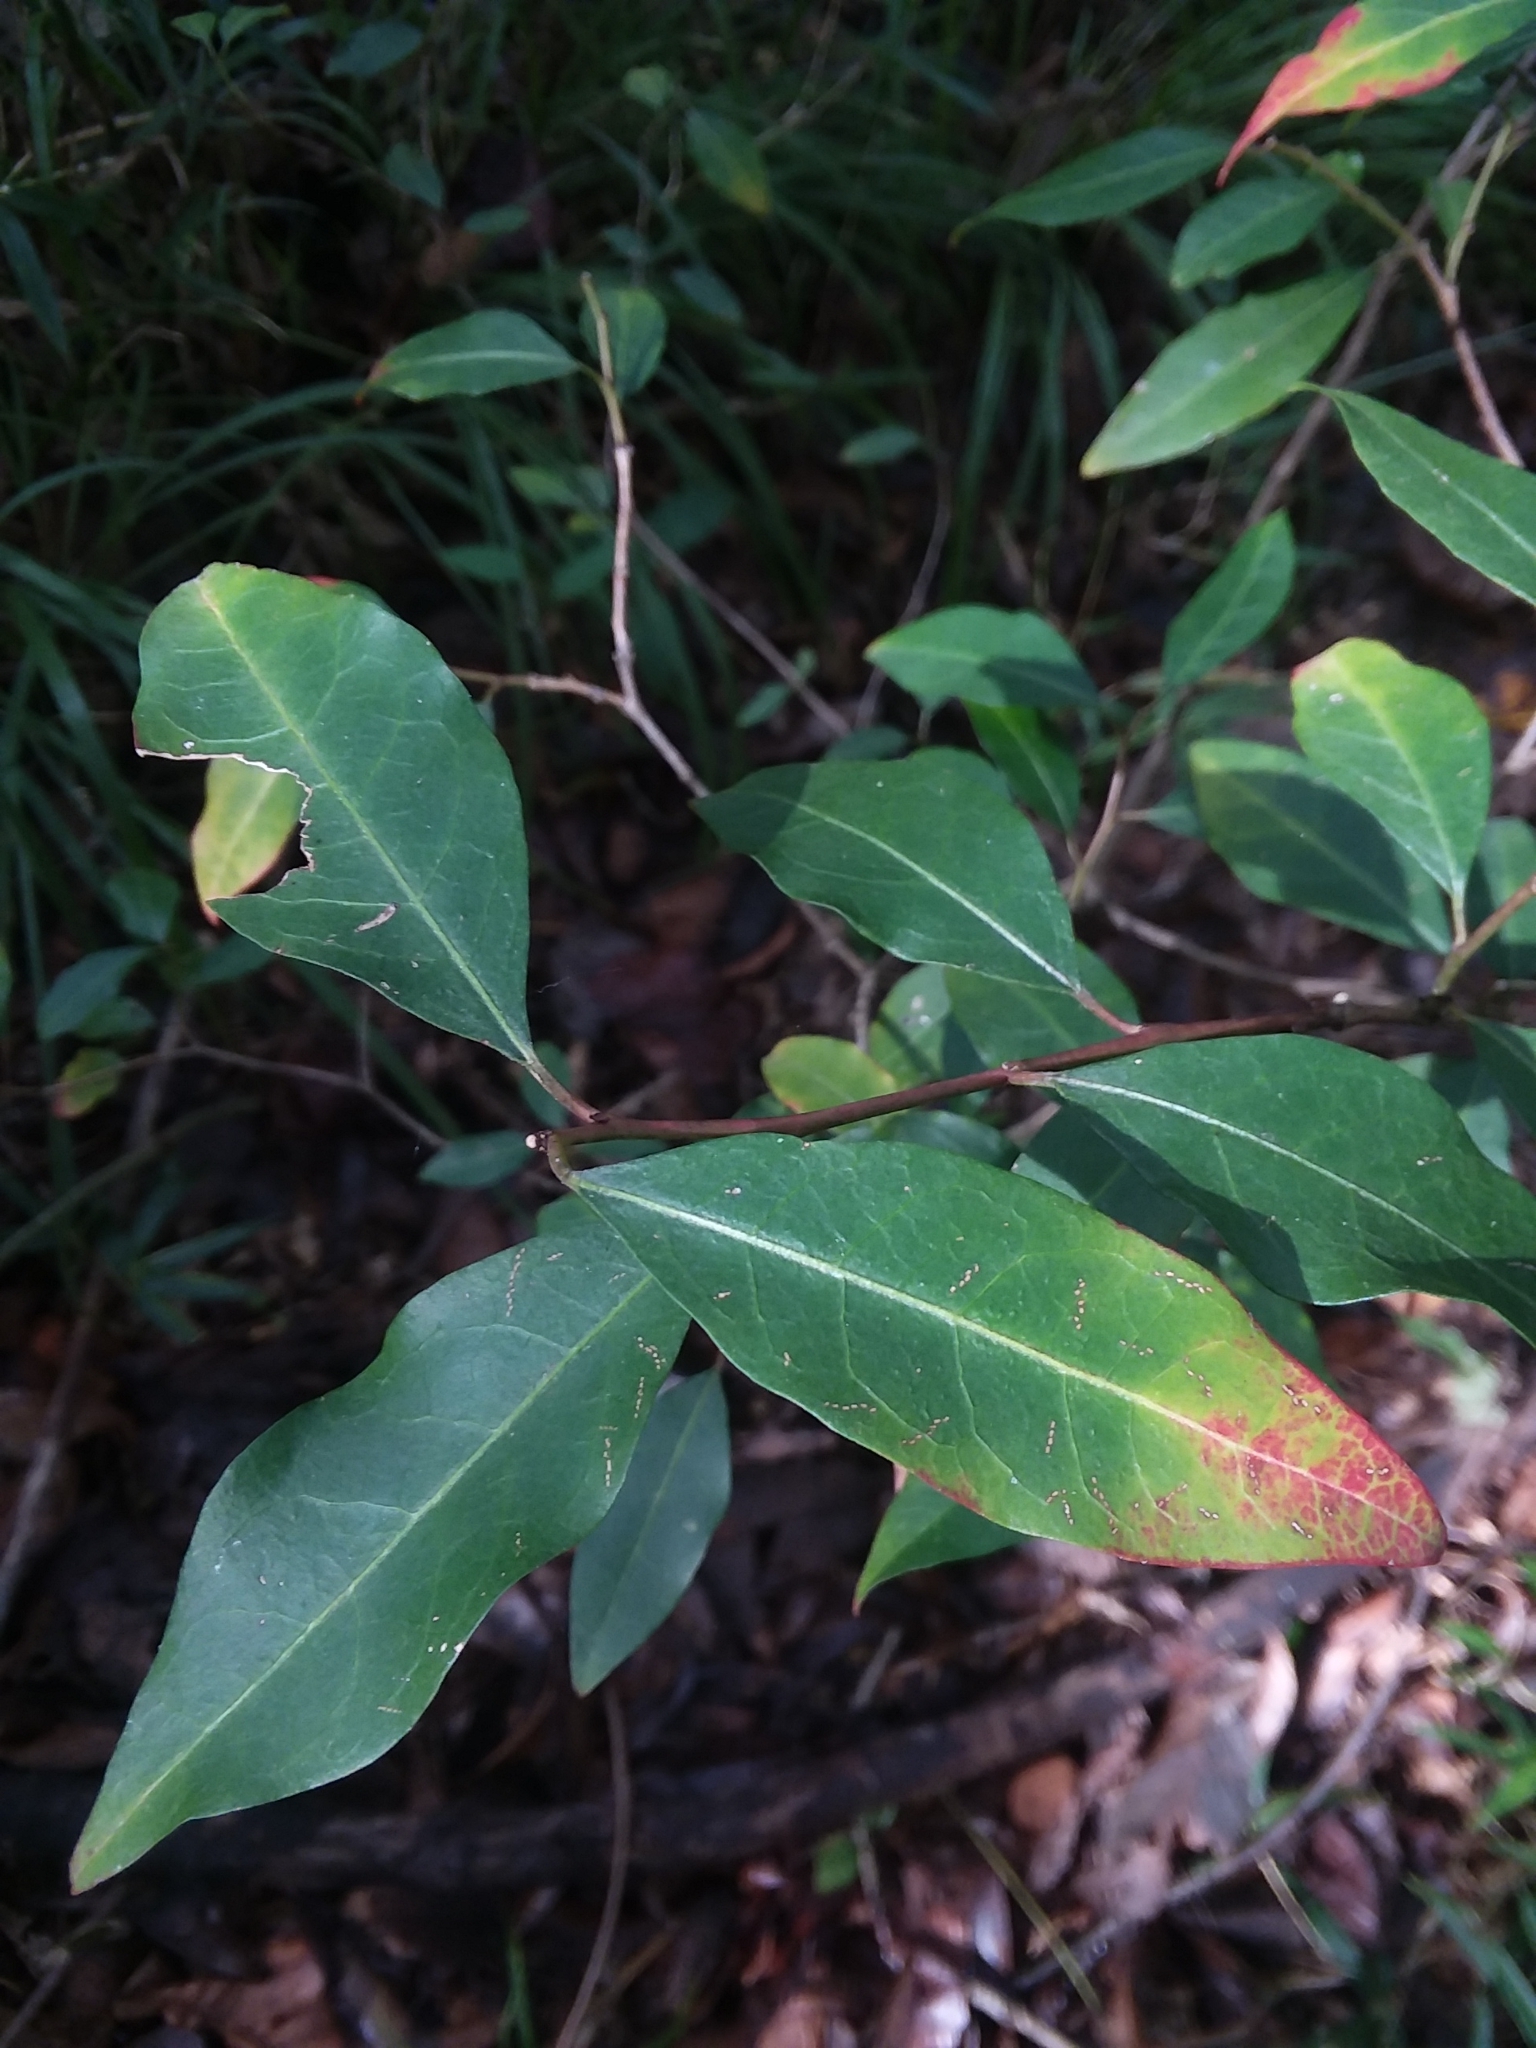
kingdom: Plantae
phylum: Tracheophyta
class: Magnoliopsida
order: Malpighiales
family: Euphorbiaceae
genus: Ditrysinia
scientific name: Ditrysinia fruticosa
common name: Gulf sebastian-bush
